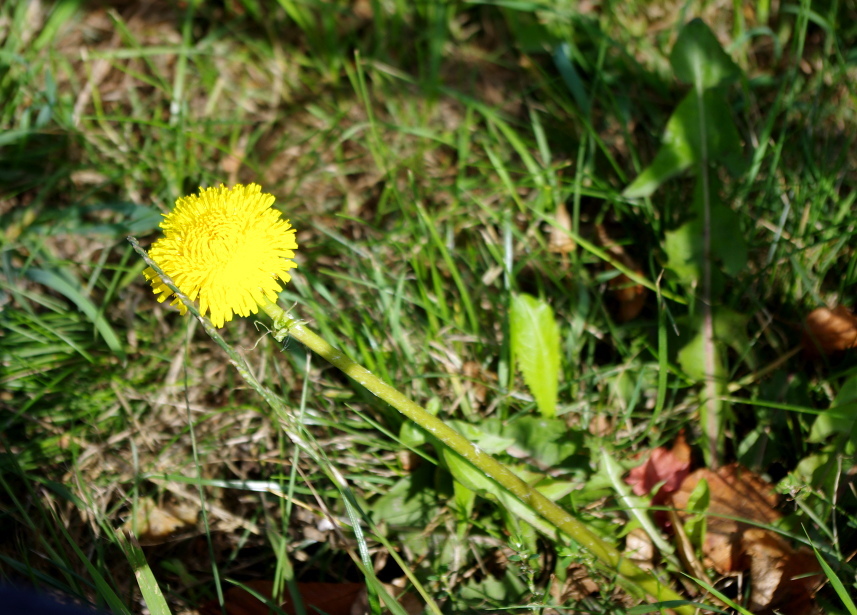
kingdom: Plantae
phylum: Tracheophyta
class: Magnoliopsida
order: Asterales
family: Asteraceae
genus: Taraxacum
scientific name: Taraxacum officinale
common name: Common dandelion
